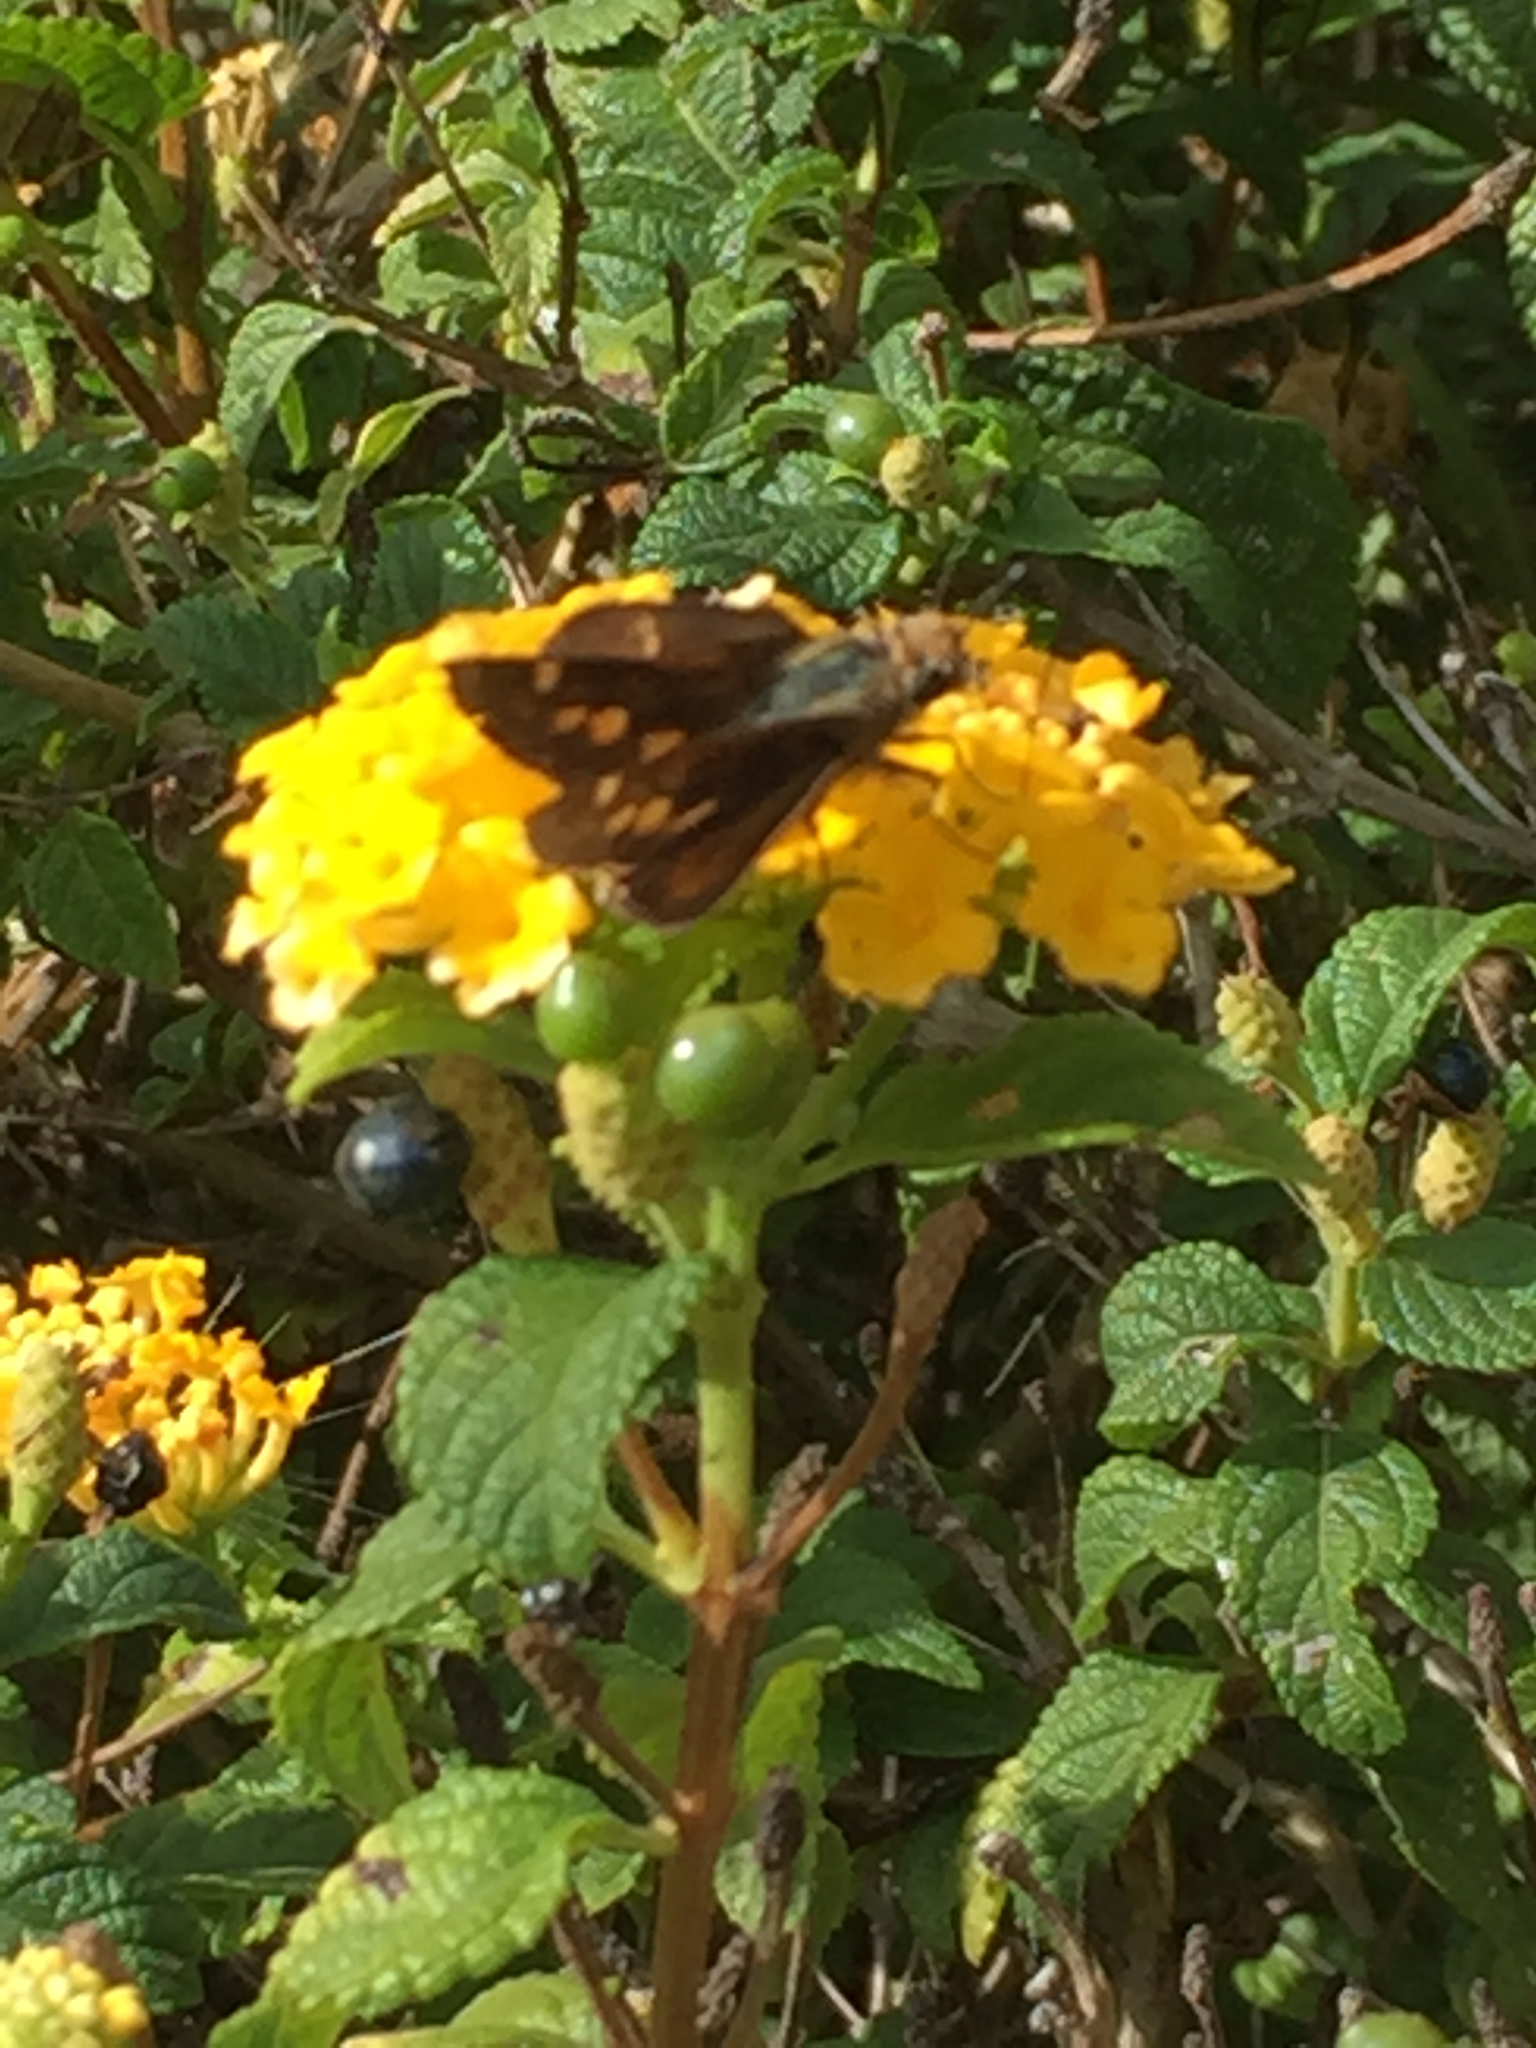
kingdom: Animalia
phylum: Arthropoda
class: Insecta
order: Lepidoptera
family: Hesperiidae
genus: Lon
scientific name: Lon melane
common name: Umber skipper
